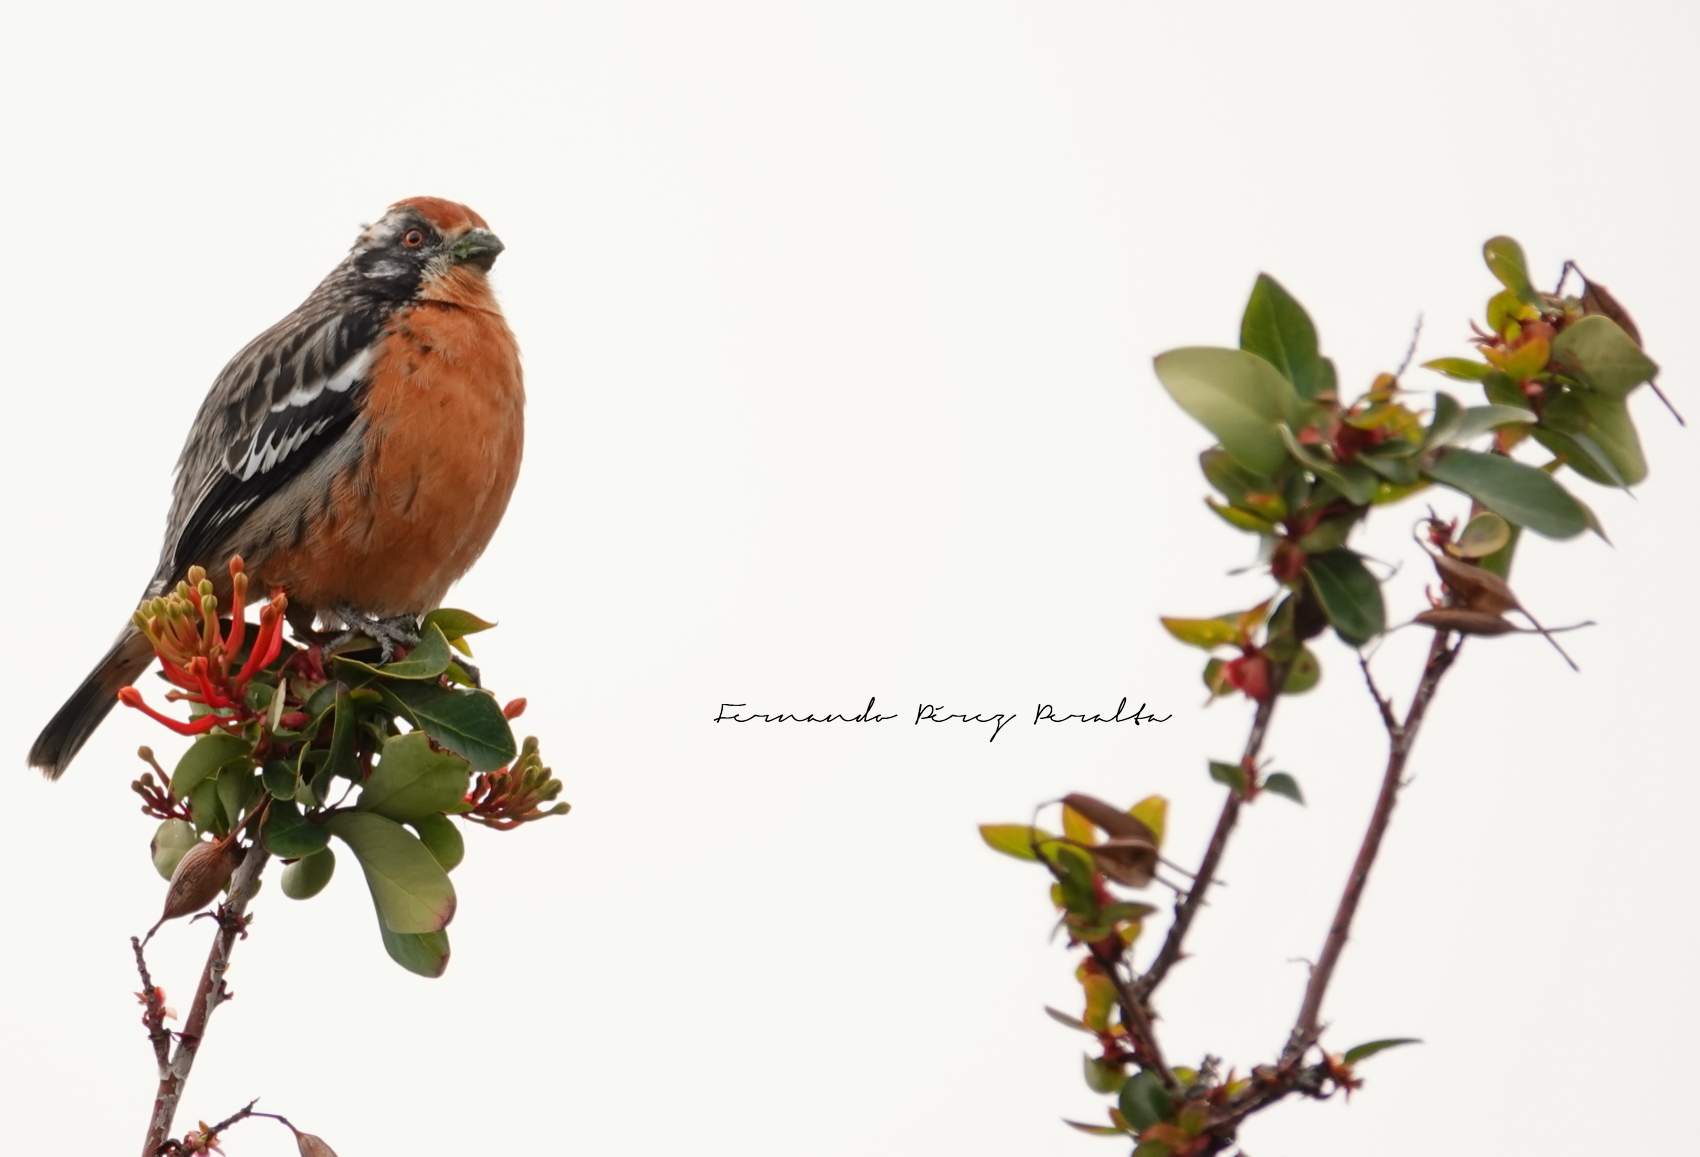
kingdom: Animalia
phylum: Chordata
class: Aves
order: Passeriformes
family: Cotingidae
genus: Phytotoma
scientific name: Phytotoma rara
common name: Rufous-tailed plantcutter
